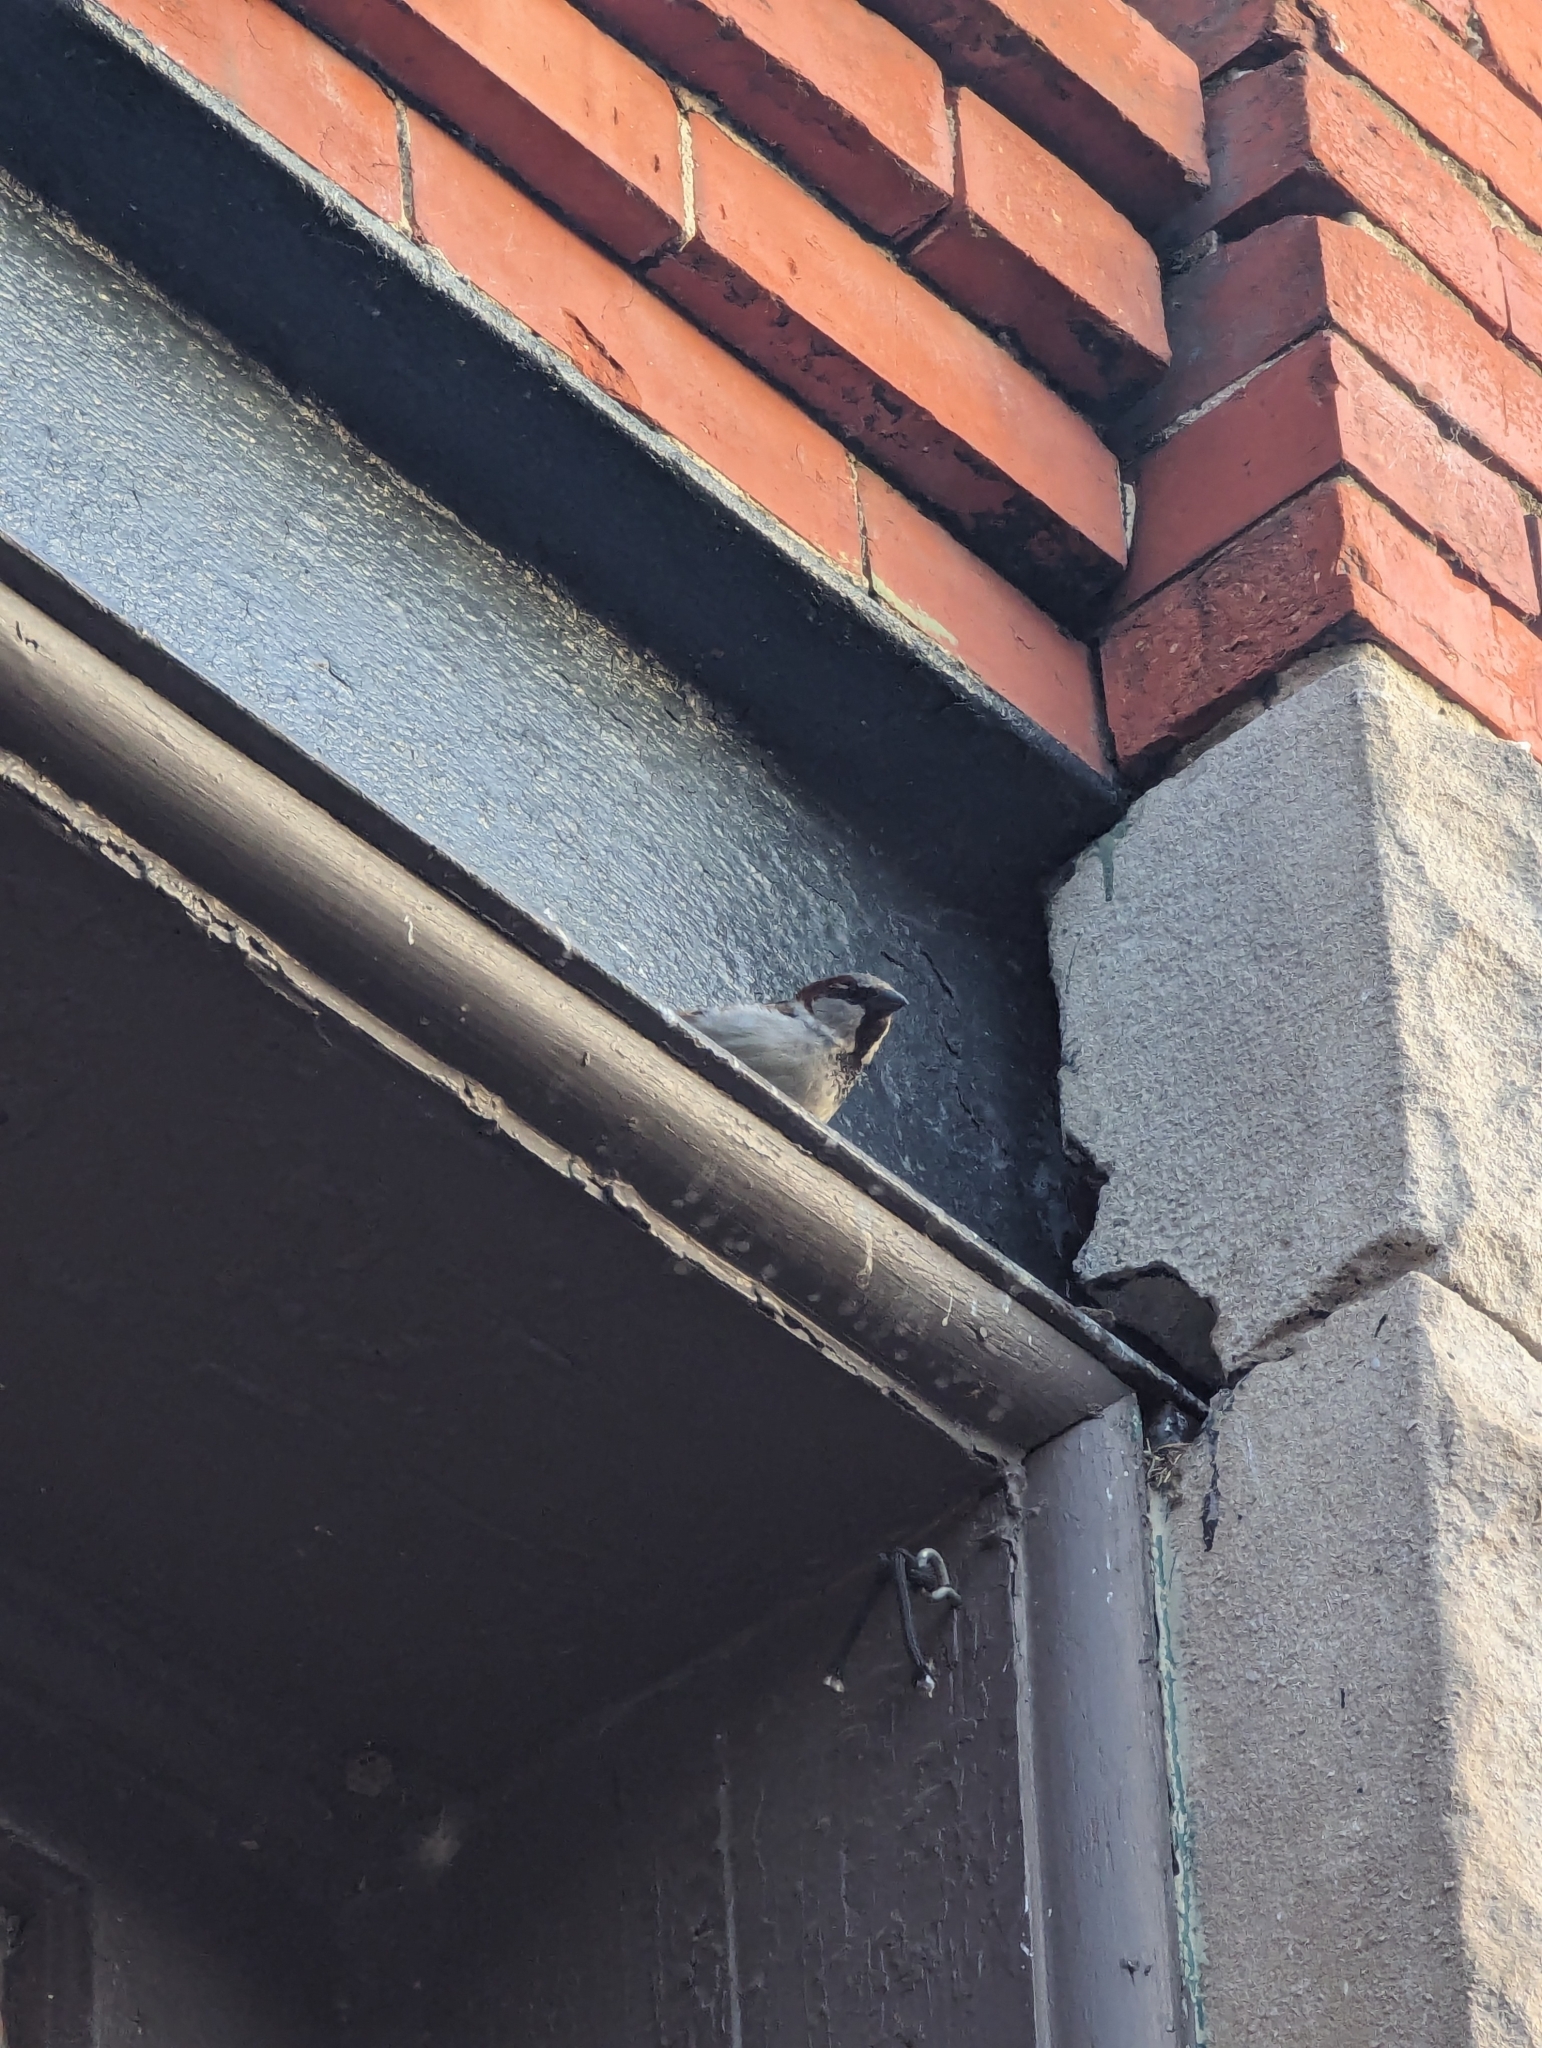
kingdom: Animalia
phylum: Chordata
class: Aves
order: Passeriformes
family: Passeridae
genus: Passer
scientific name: Passer domesticus
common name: House sparrow
